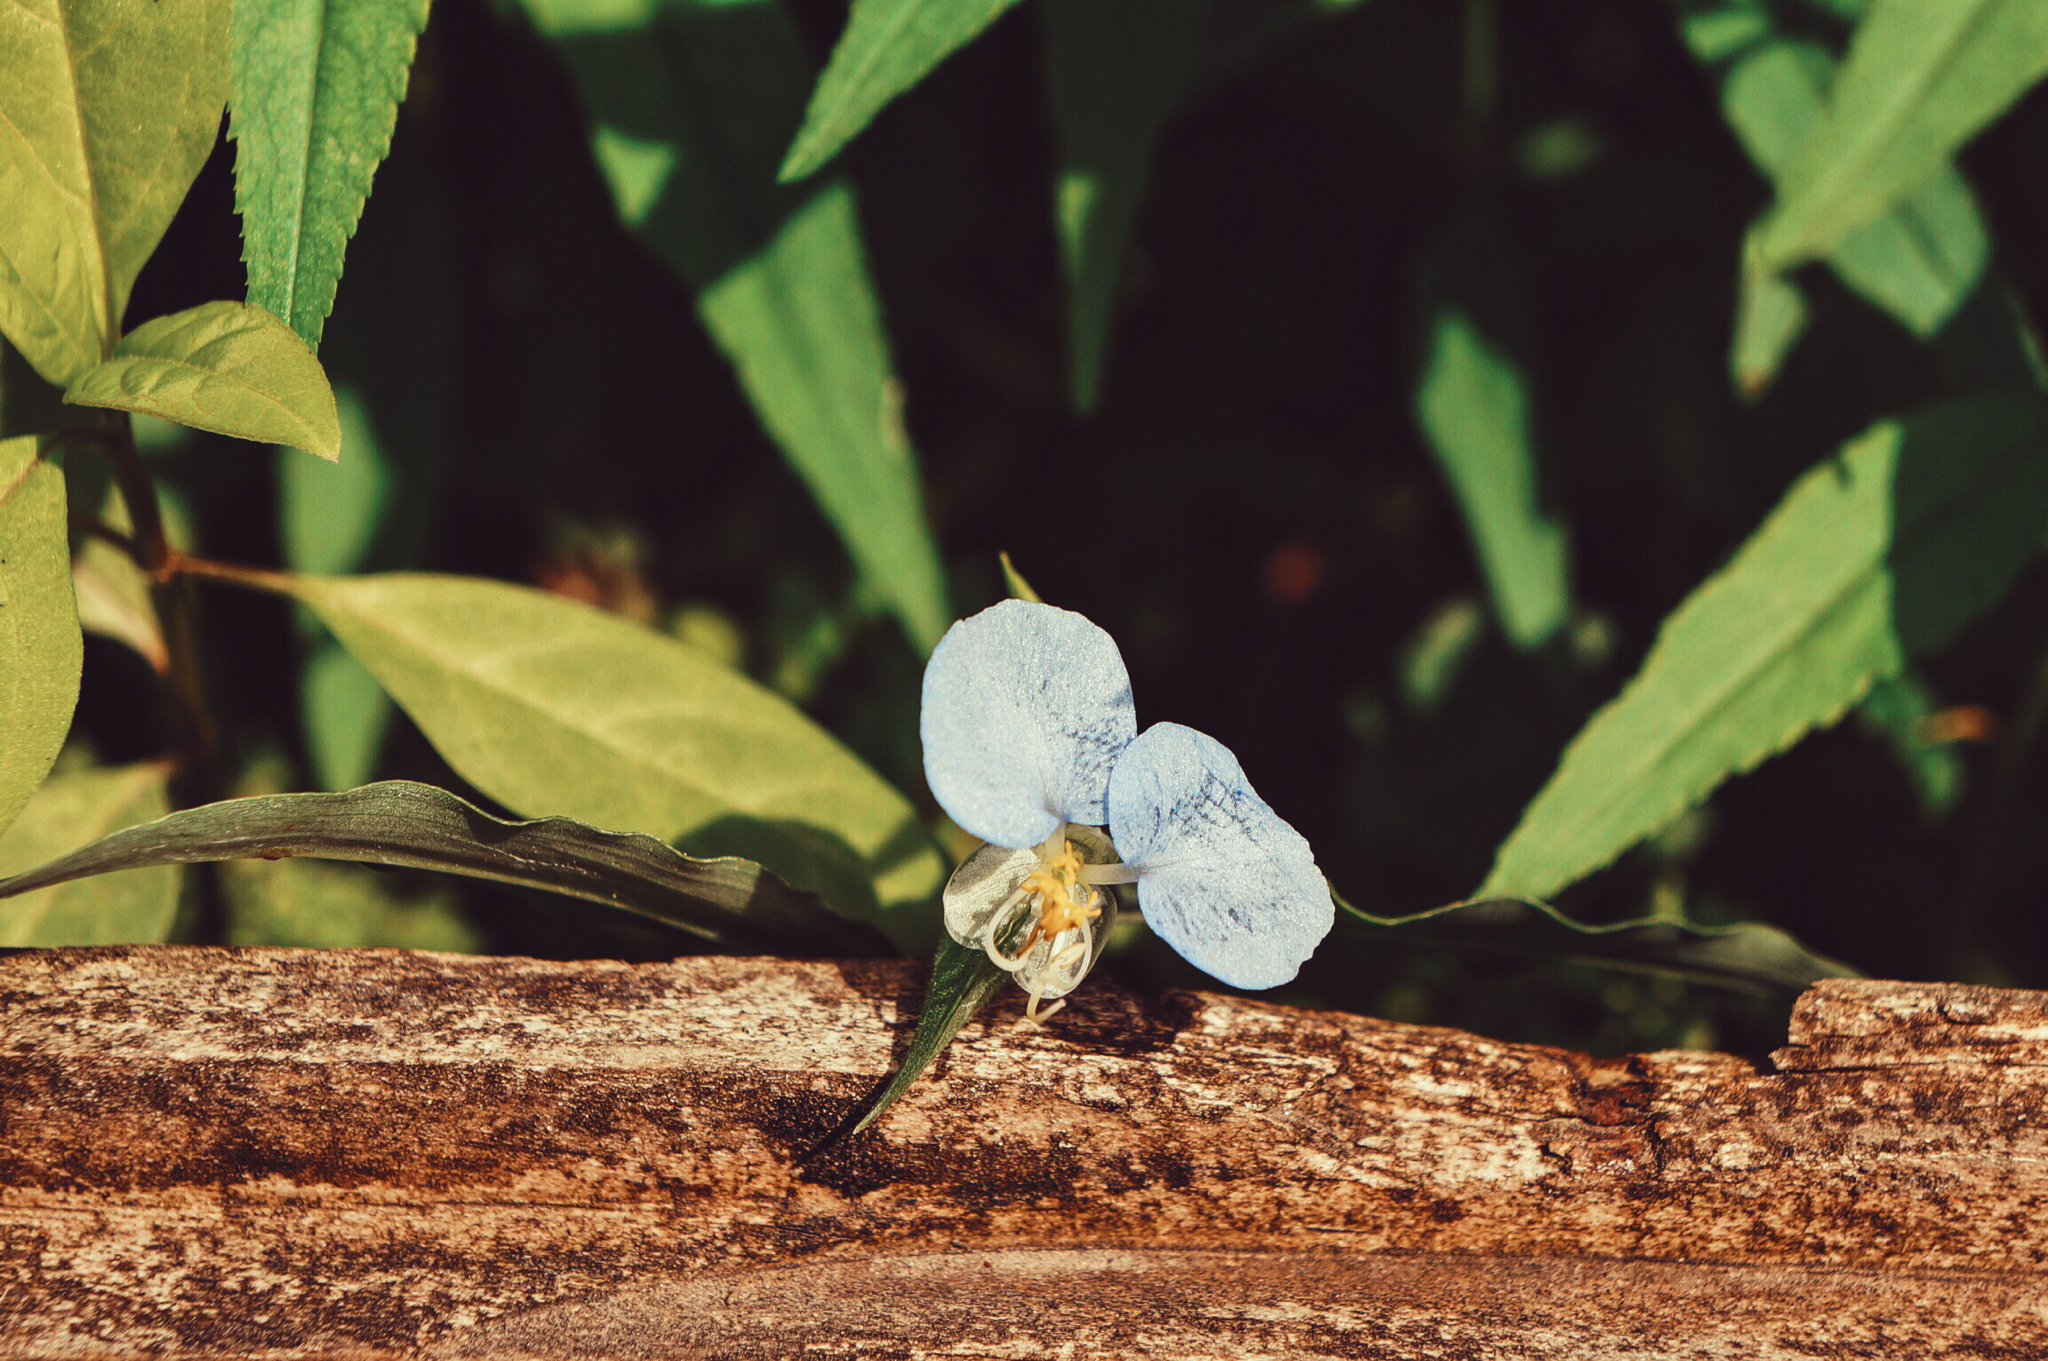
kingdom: Plantae
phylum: Tracheophyta
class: Liliopsida
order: Commelinales
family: Commelinaceae
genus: Commelina
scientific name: Commelina erecta
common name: Blousel blommetjie
